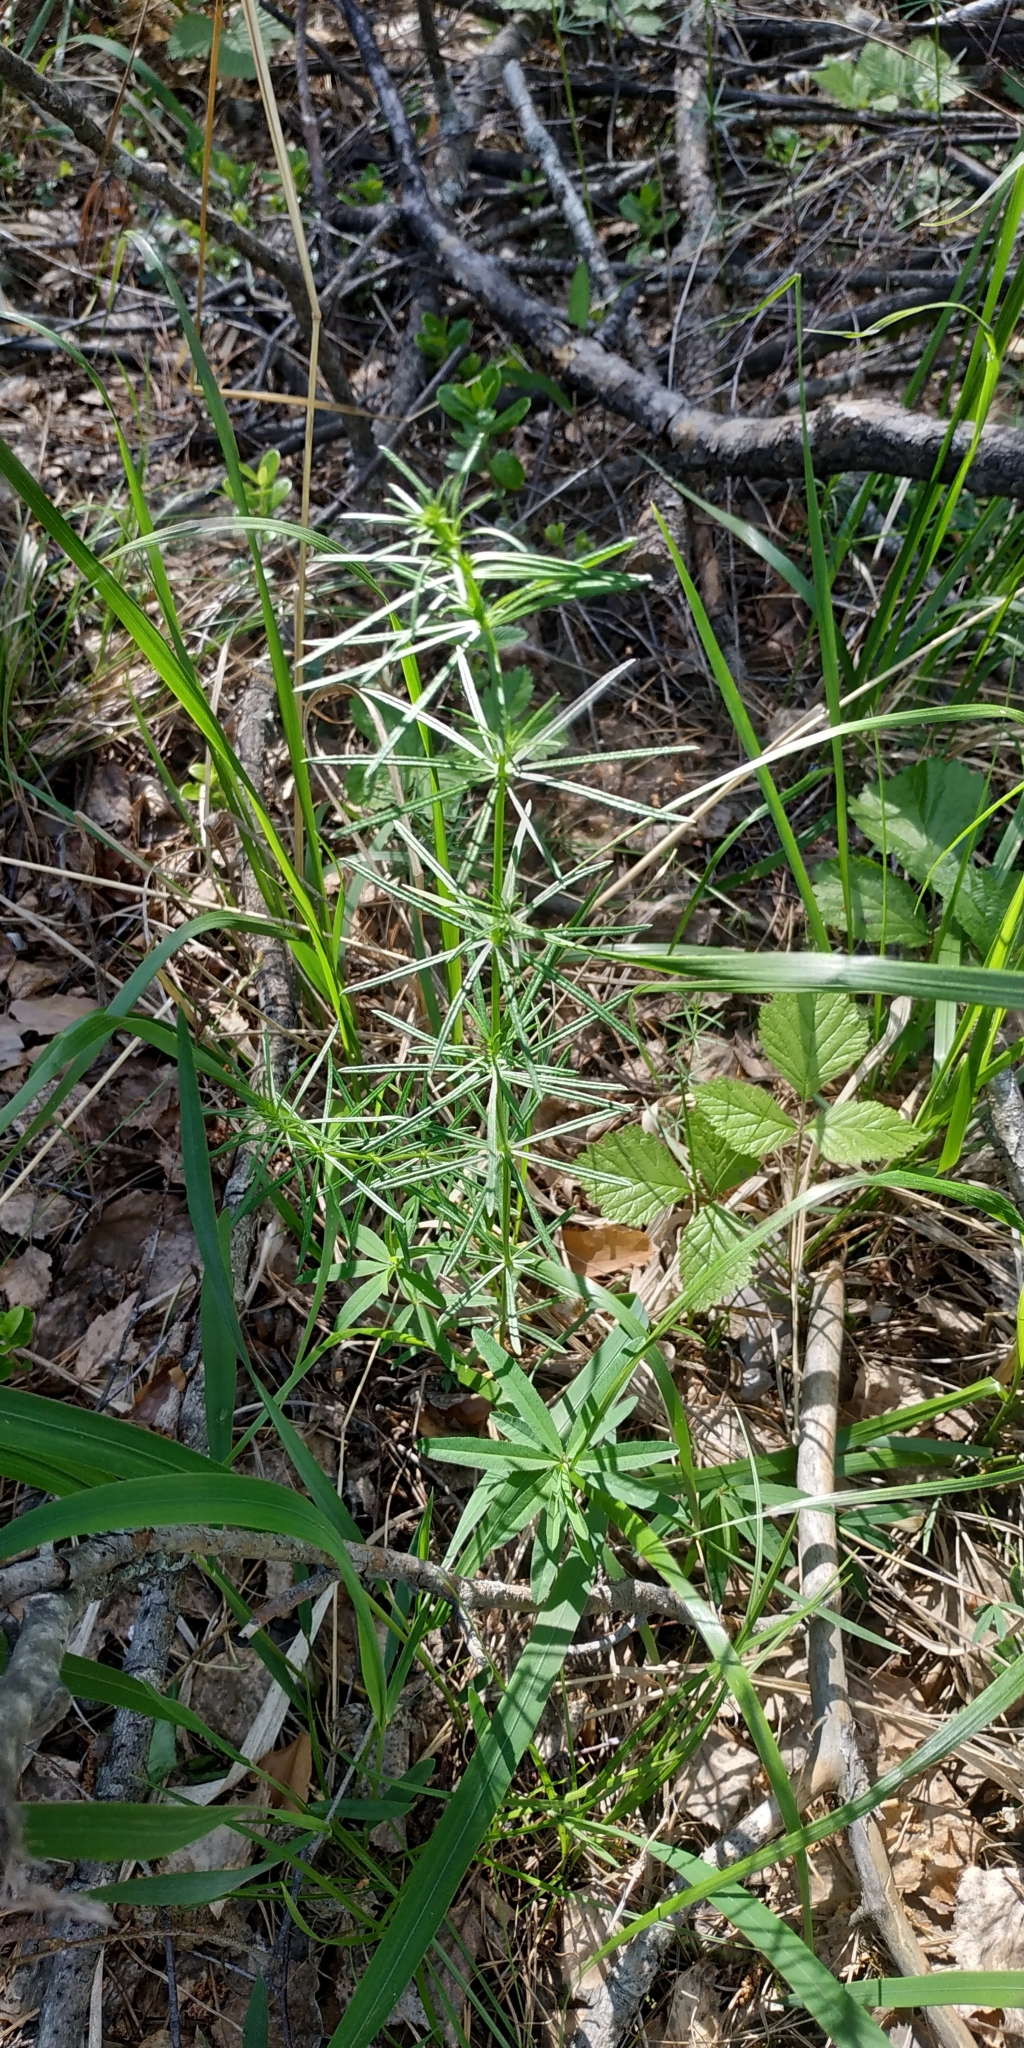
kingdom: Plantae
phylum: Tracheophyta
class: Magnoliopsida
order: Gentianales
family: Rubiaceae
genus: Galium
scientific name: Galium verum
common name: Lady's bedstraw
